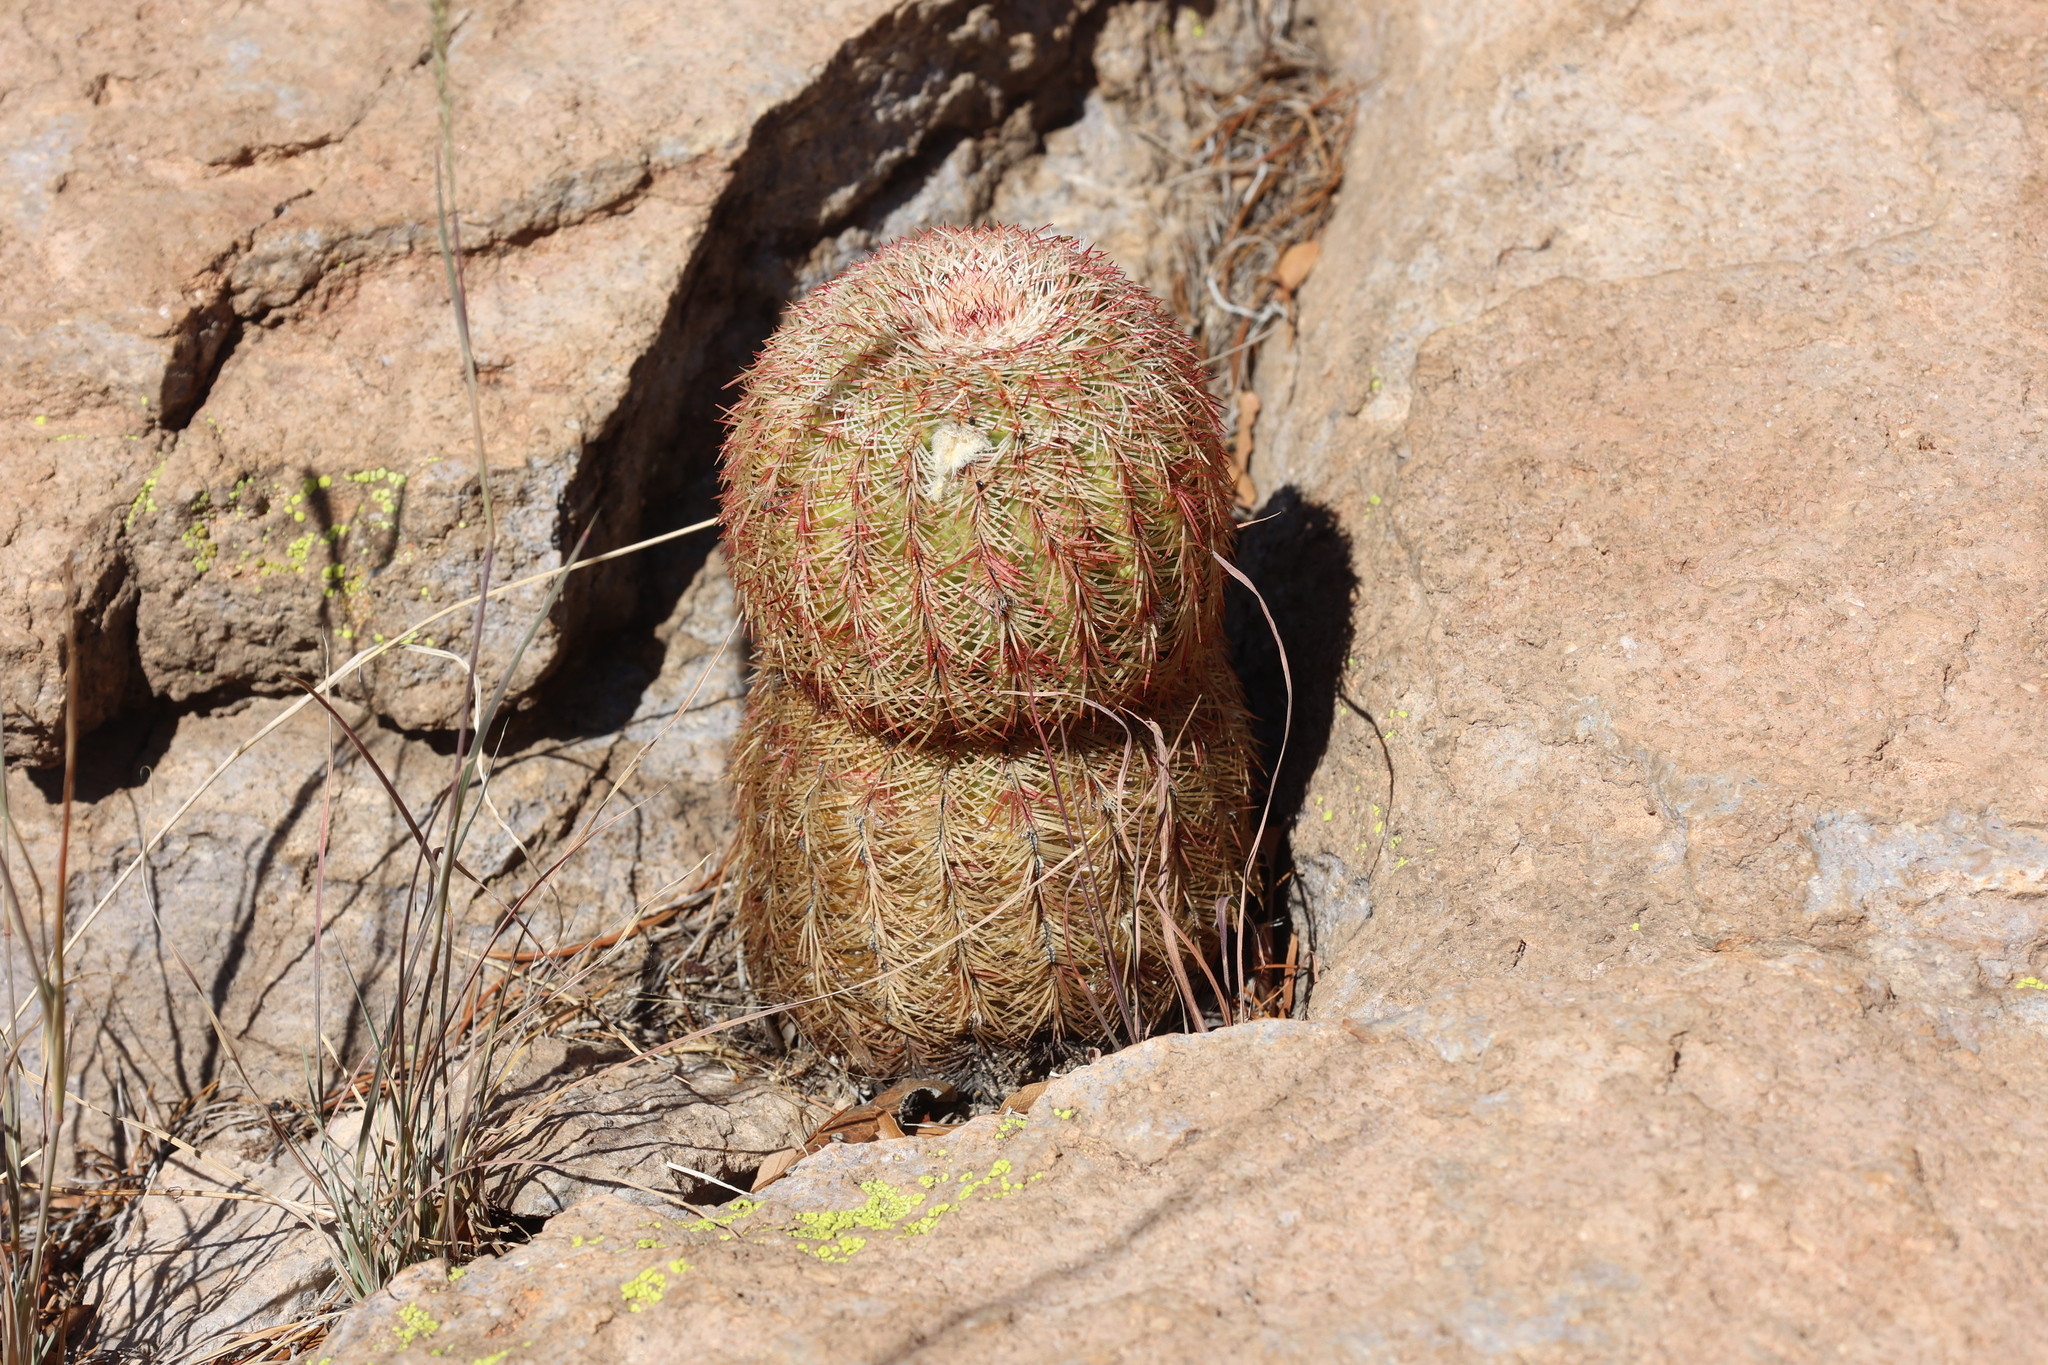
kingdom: Plantae
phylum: Tracheophyta
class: Magnoliopsida
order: Caryophyllales
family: Cactaceae
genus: Echinocereus
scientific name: Echinocereus rigidissimus
